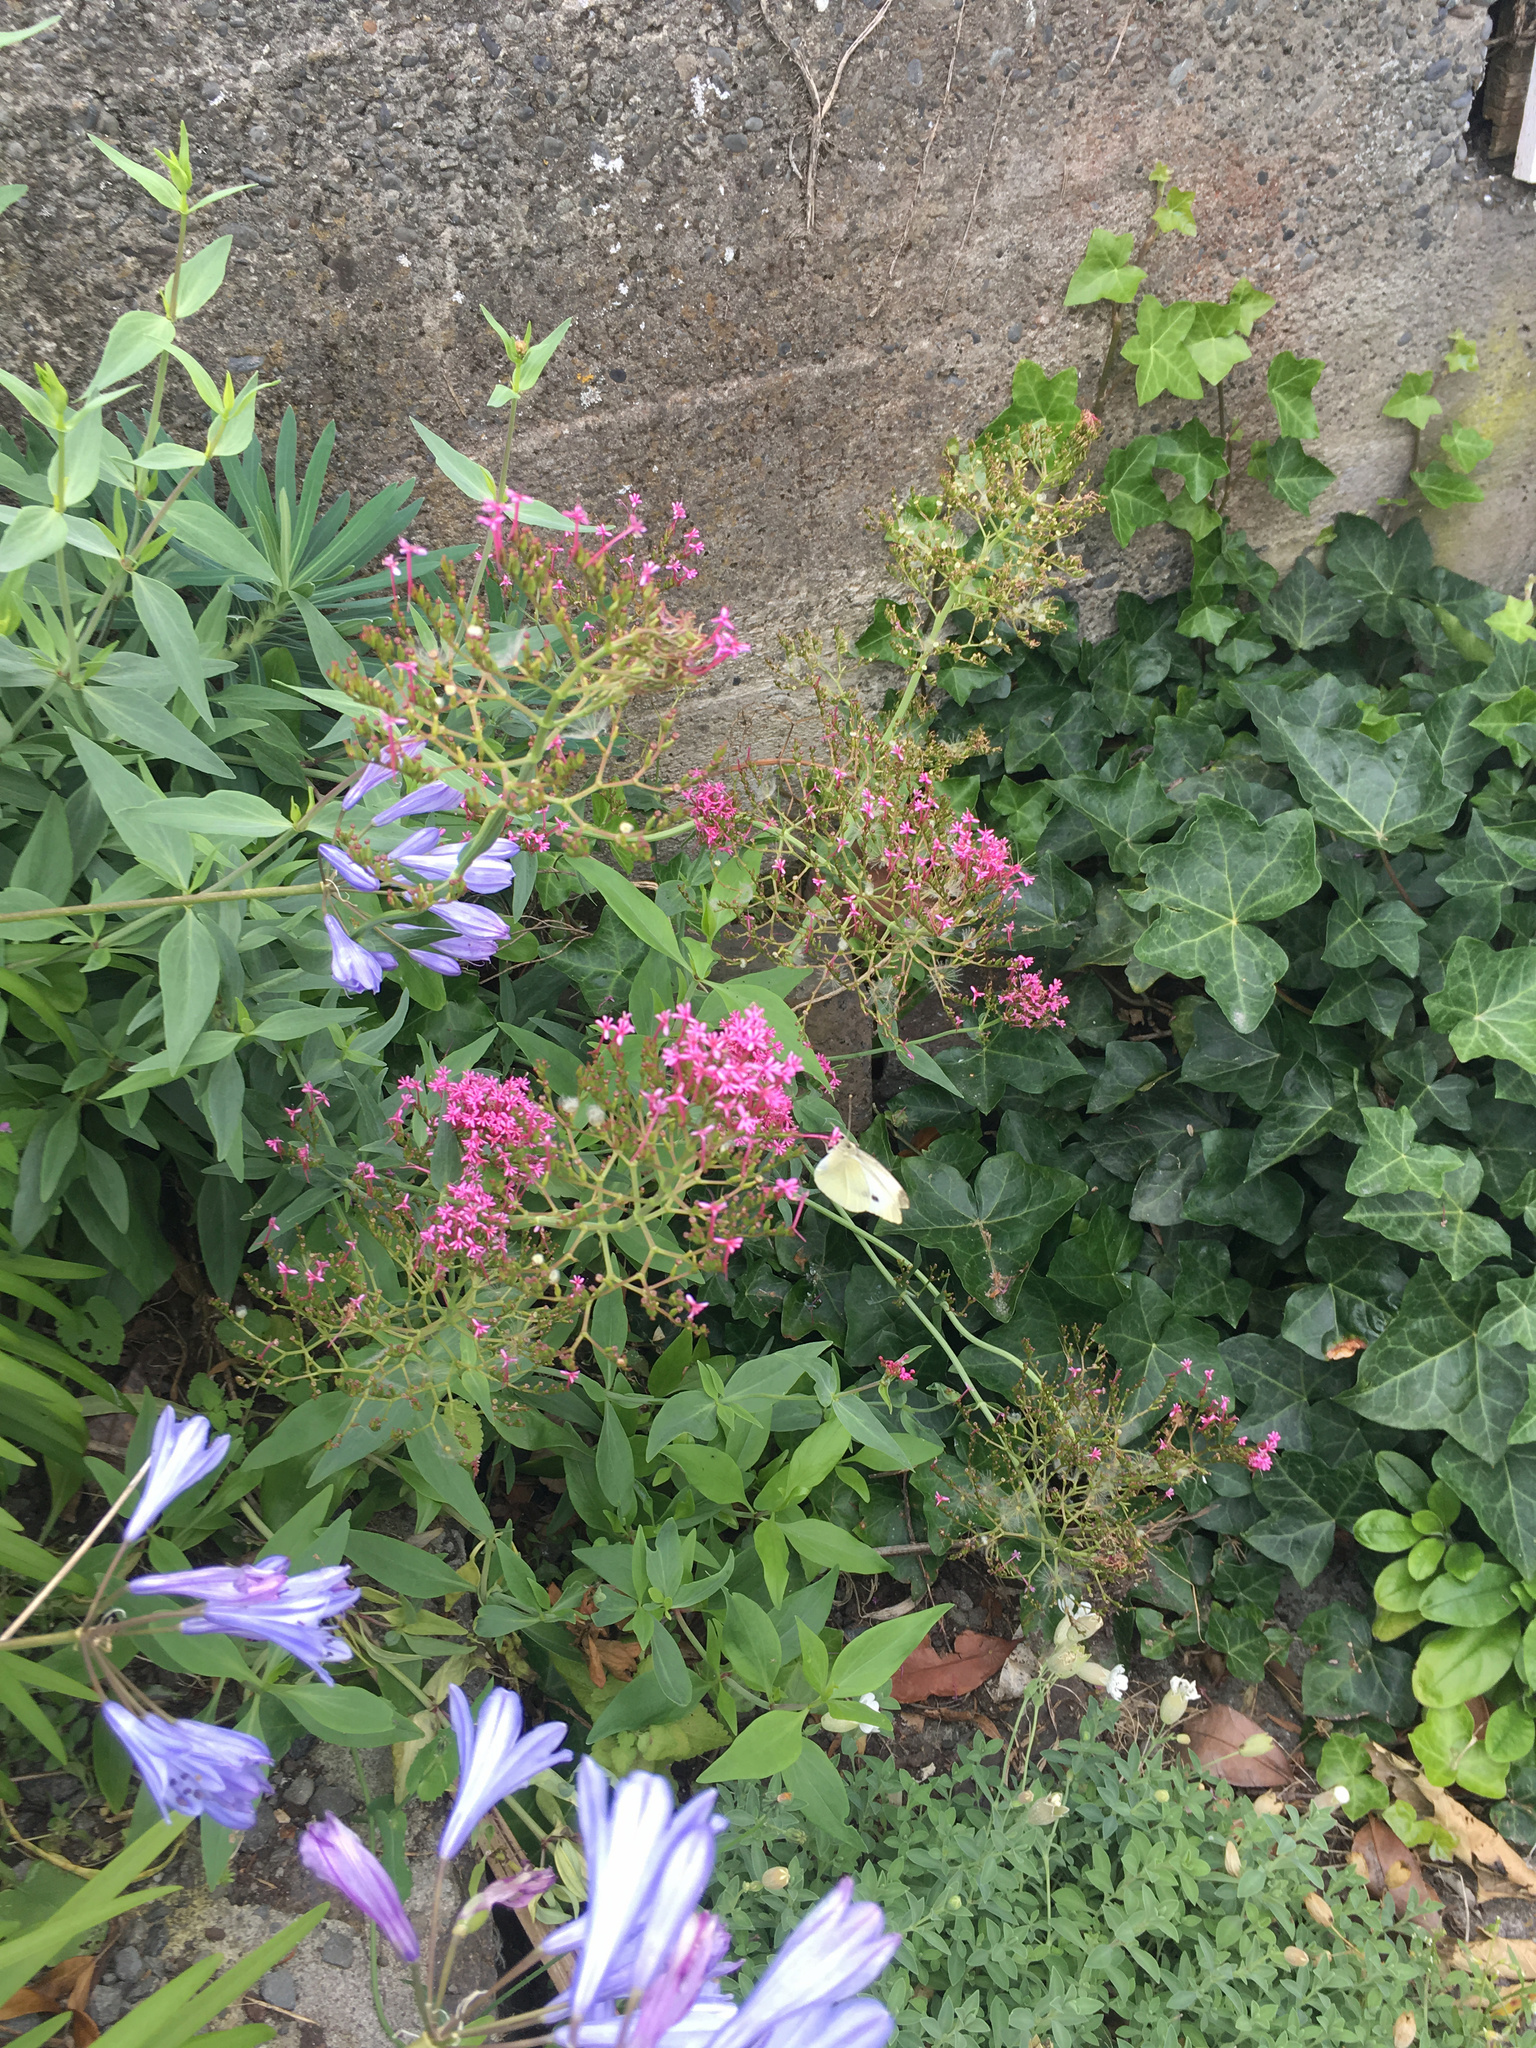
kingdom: Plantae
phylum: Tracheophyta
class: Magnoliopsida
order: Dipsacales
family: Caprifoliaceae
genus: Centranthus
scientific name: Centranthus ruber
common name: Red valerian
